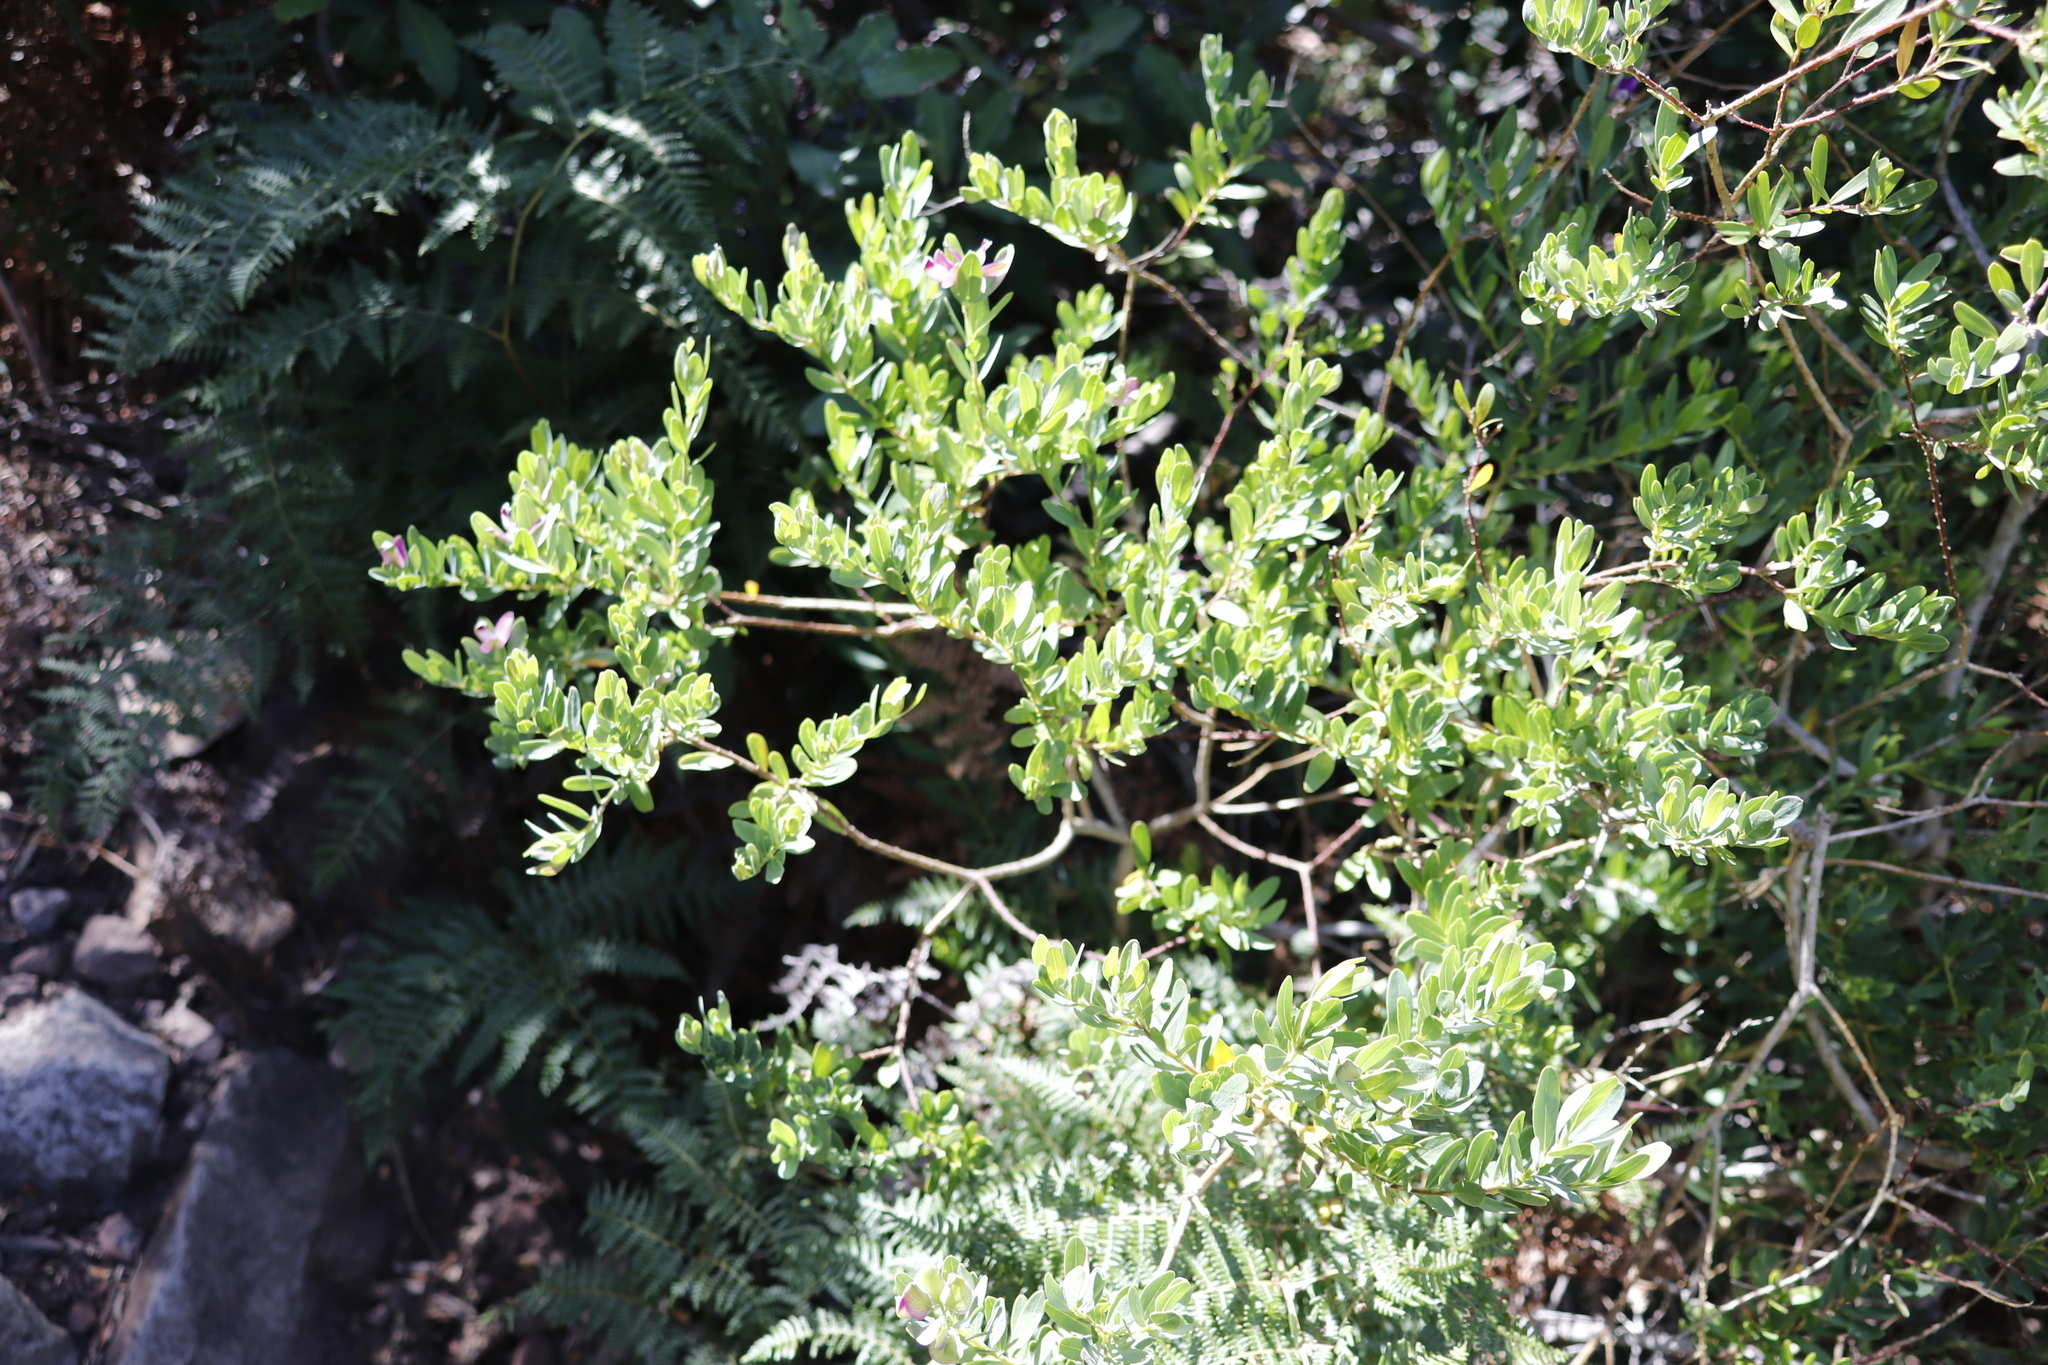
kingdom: Plantae
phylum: Tracheophyta
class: Magnoliopsida
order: Fabales
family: Polygalaceae
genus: Polygala
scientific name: Polygala myrtifolia
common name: Myrtle-leaf milkwort
